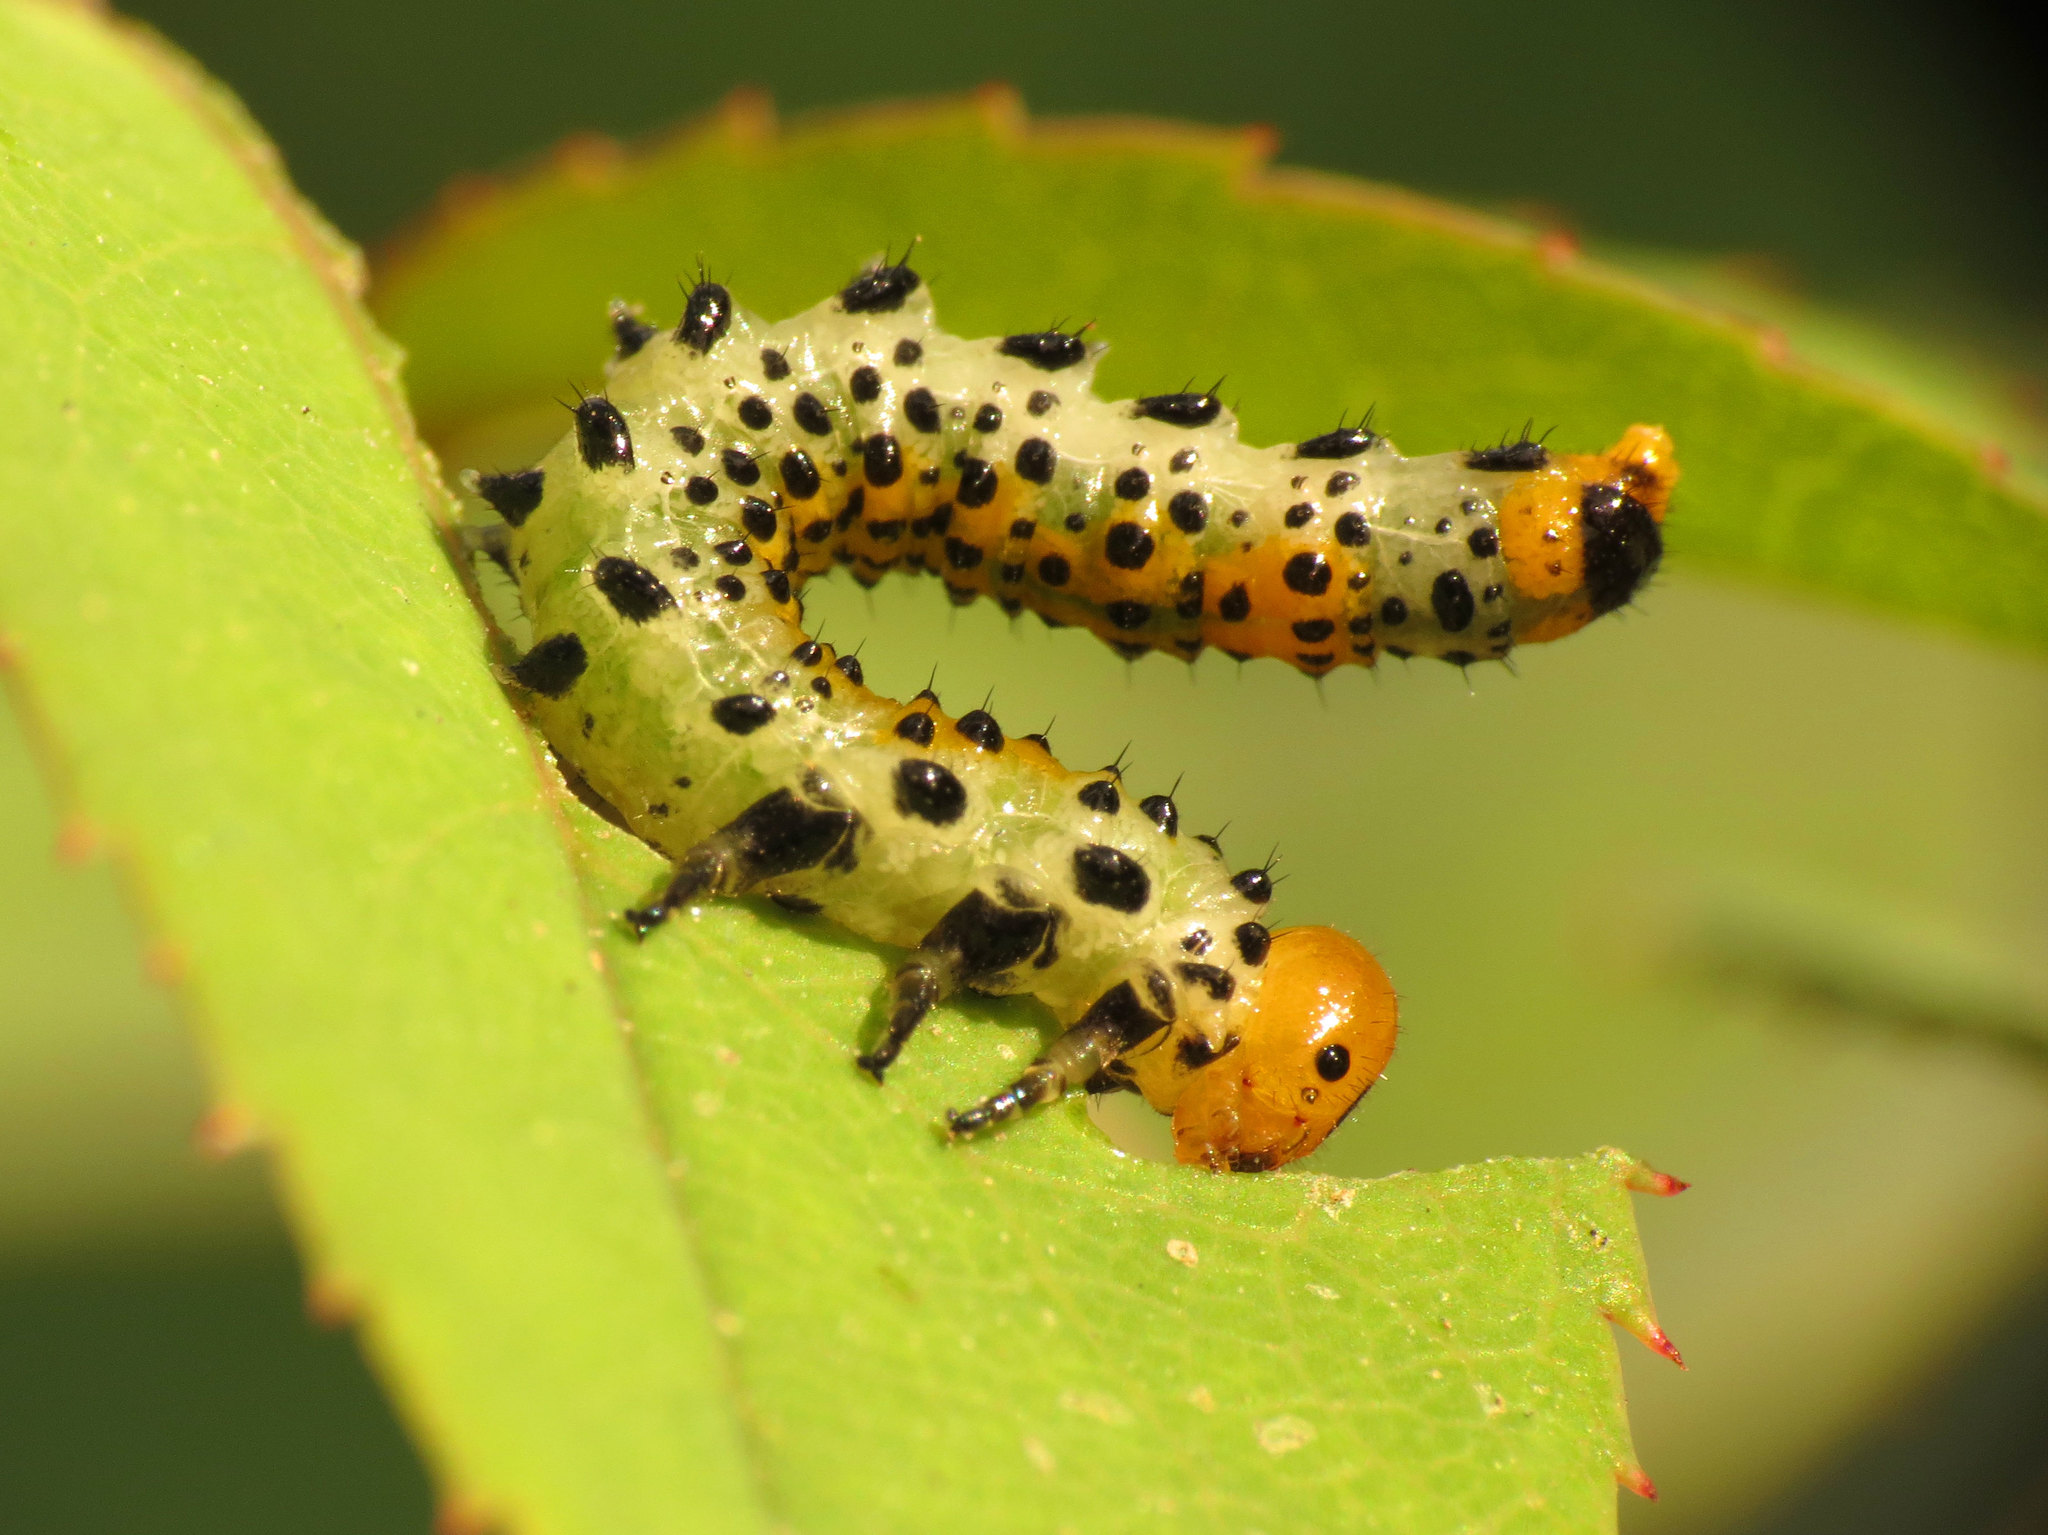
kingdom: Animalia
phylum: Arthropoda
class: Insecta
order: Hymenoptera
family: Argidae
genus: Arge
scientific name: Arge ochropus
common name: Argid sawfly
